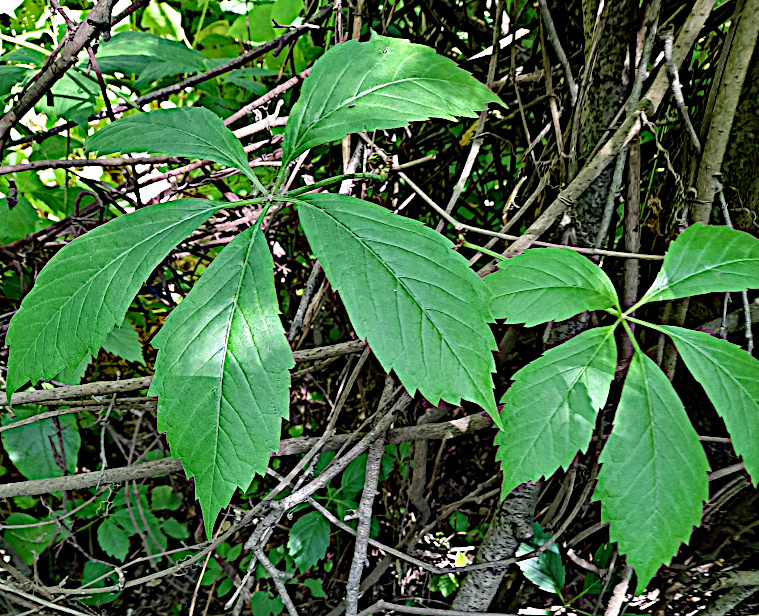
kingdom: Plantae
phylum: Tracheophyta
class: Magnoliopsida
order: Vitales
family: Vitaceae
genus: Parthenocissus
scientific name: Parthenocissus inserta
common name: False virginia-creeper
